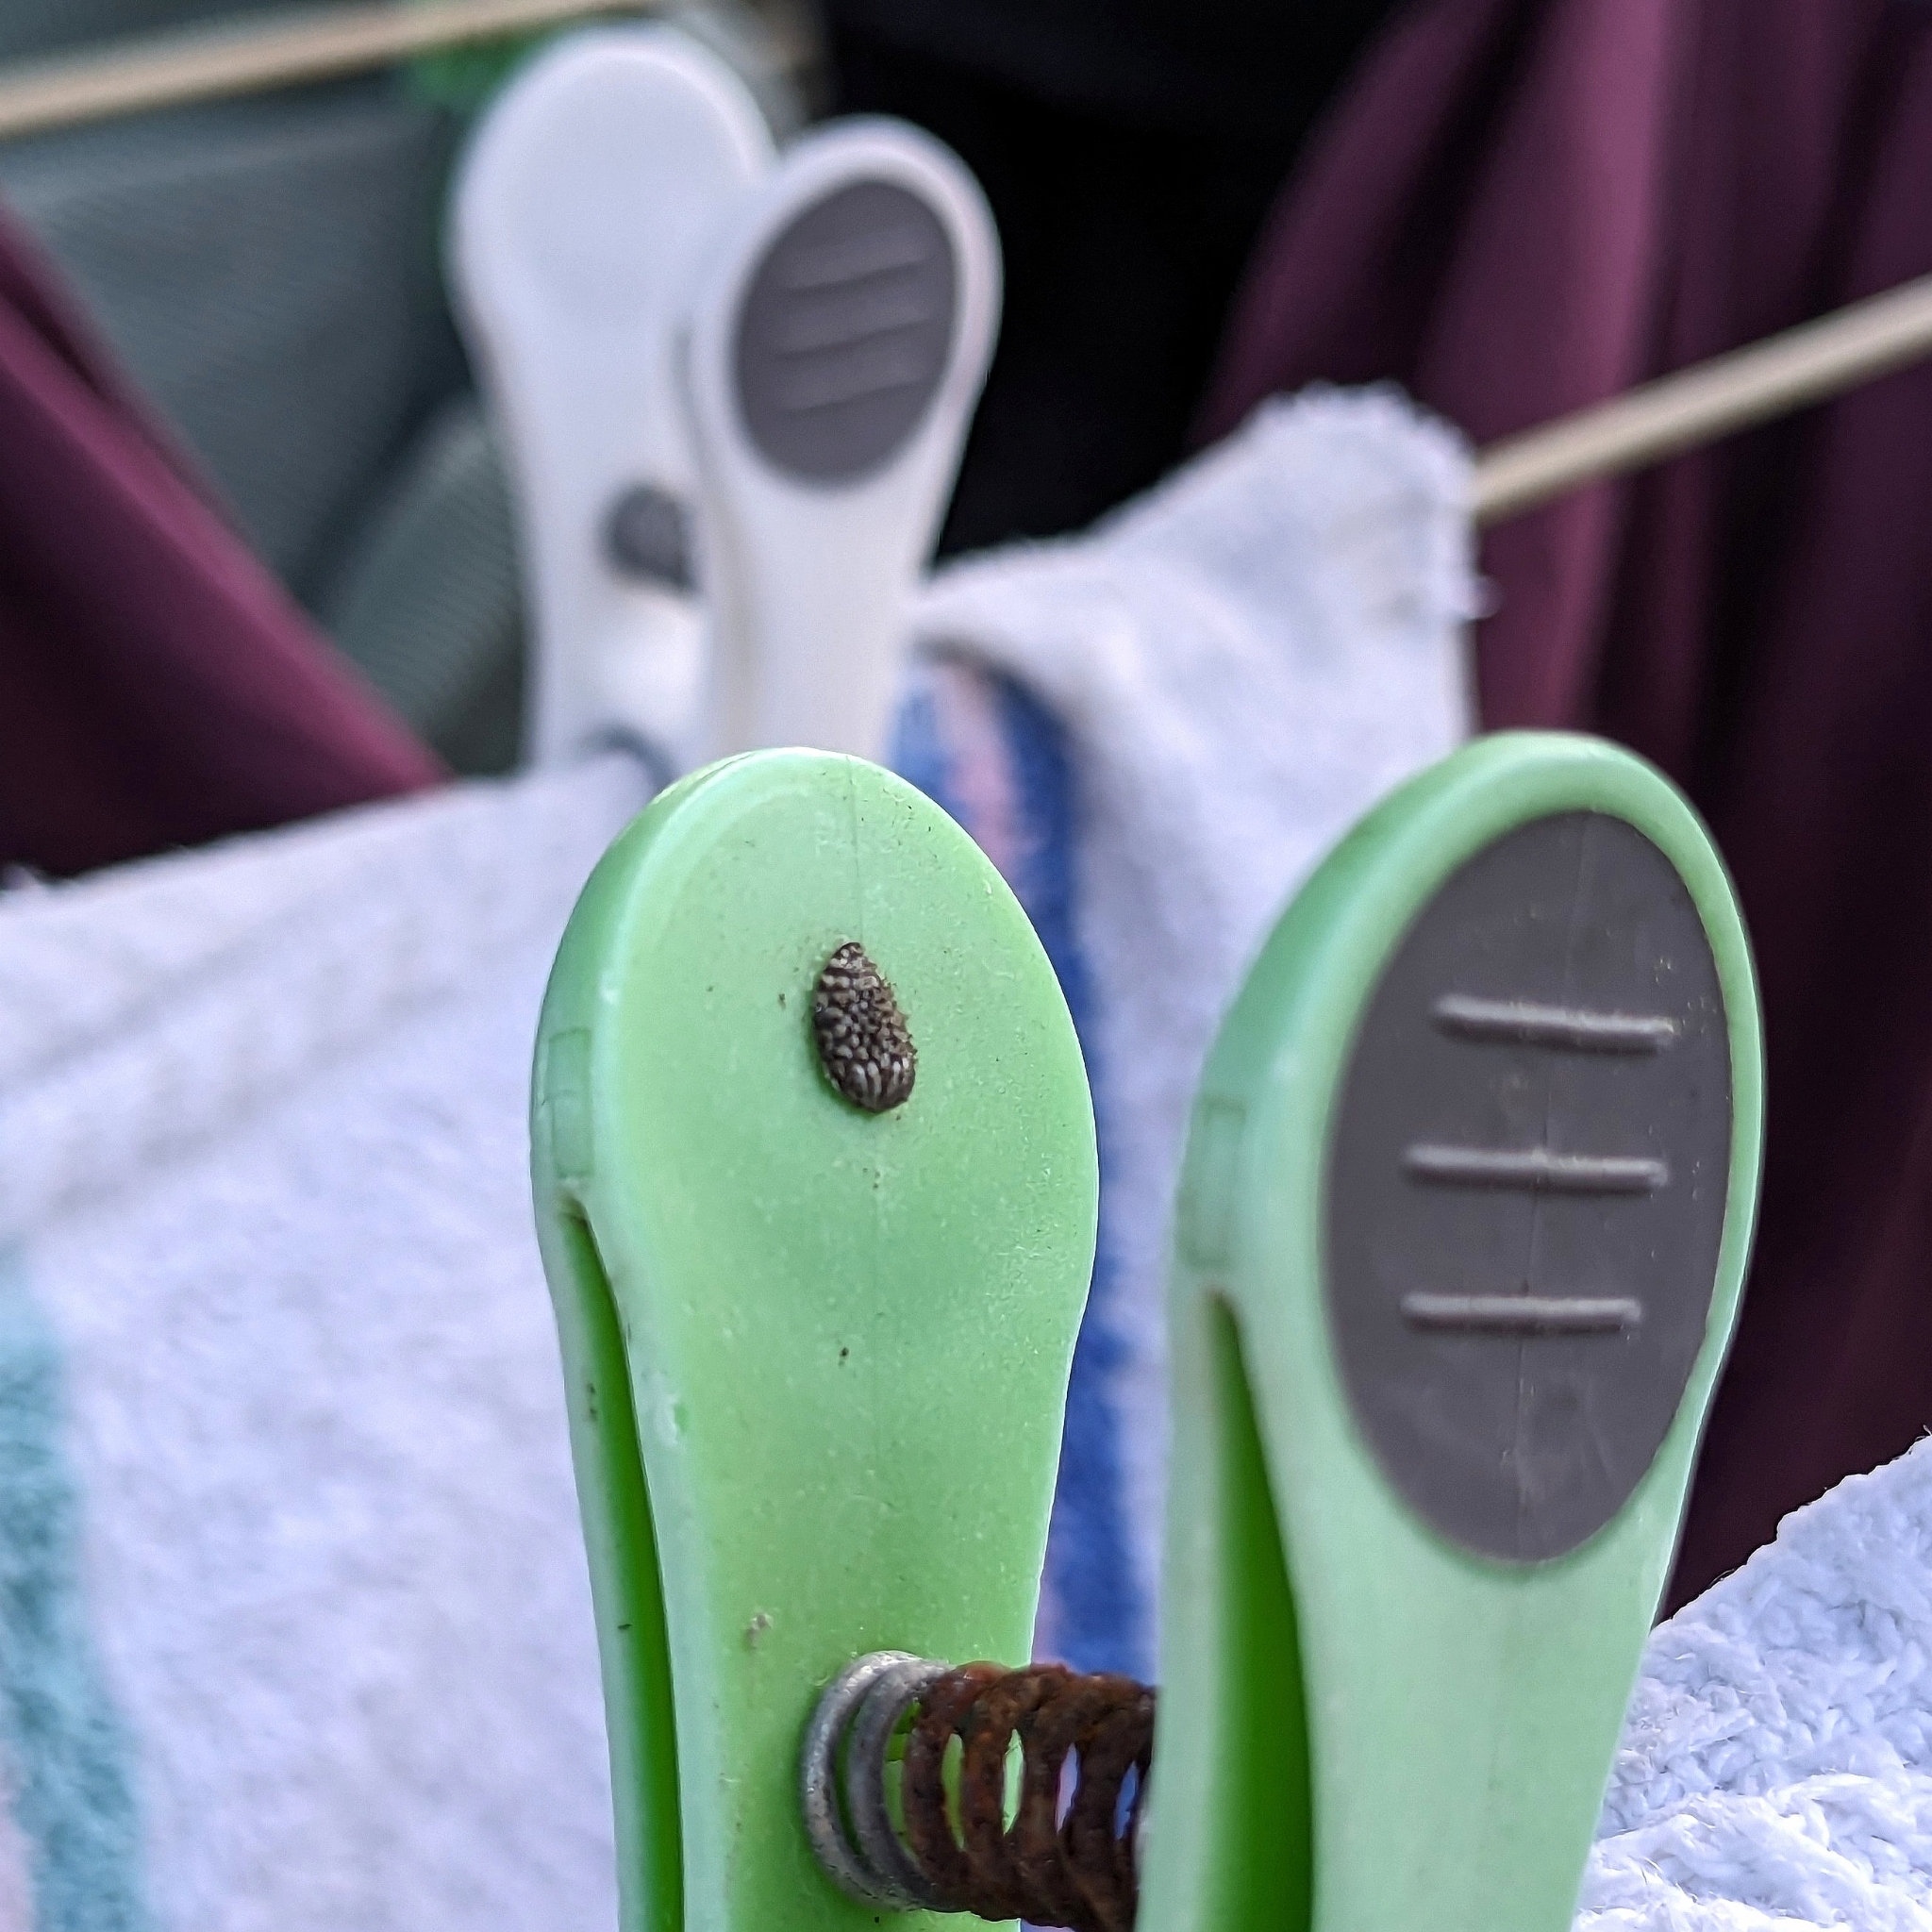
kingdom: Animalia
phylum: Arthropoda
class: Insecta
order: Hemiptera
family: Flatidae
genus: Siphanta
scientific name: Siphanta acuta
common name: Torpedo bug
